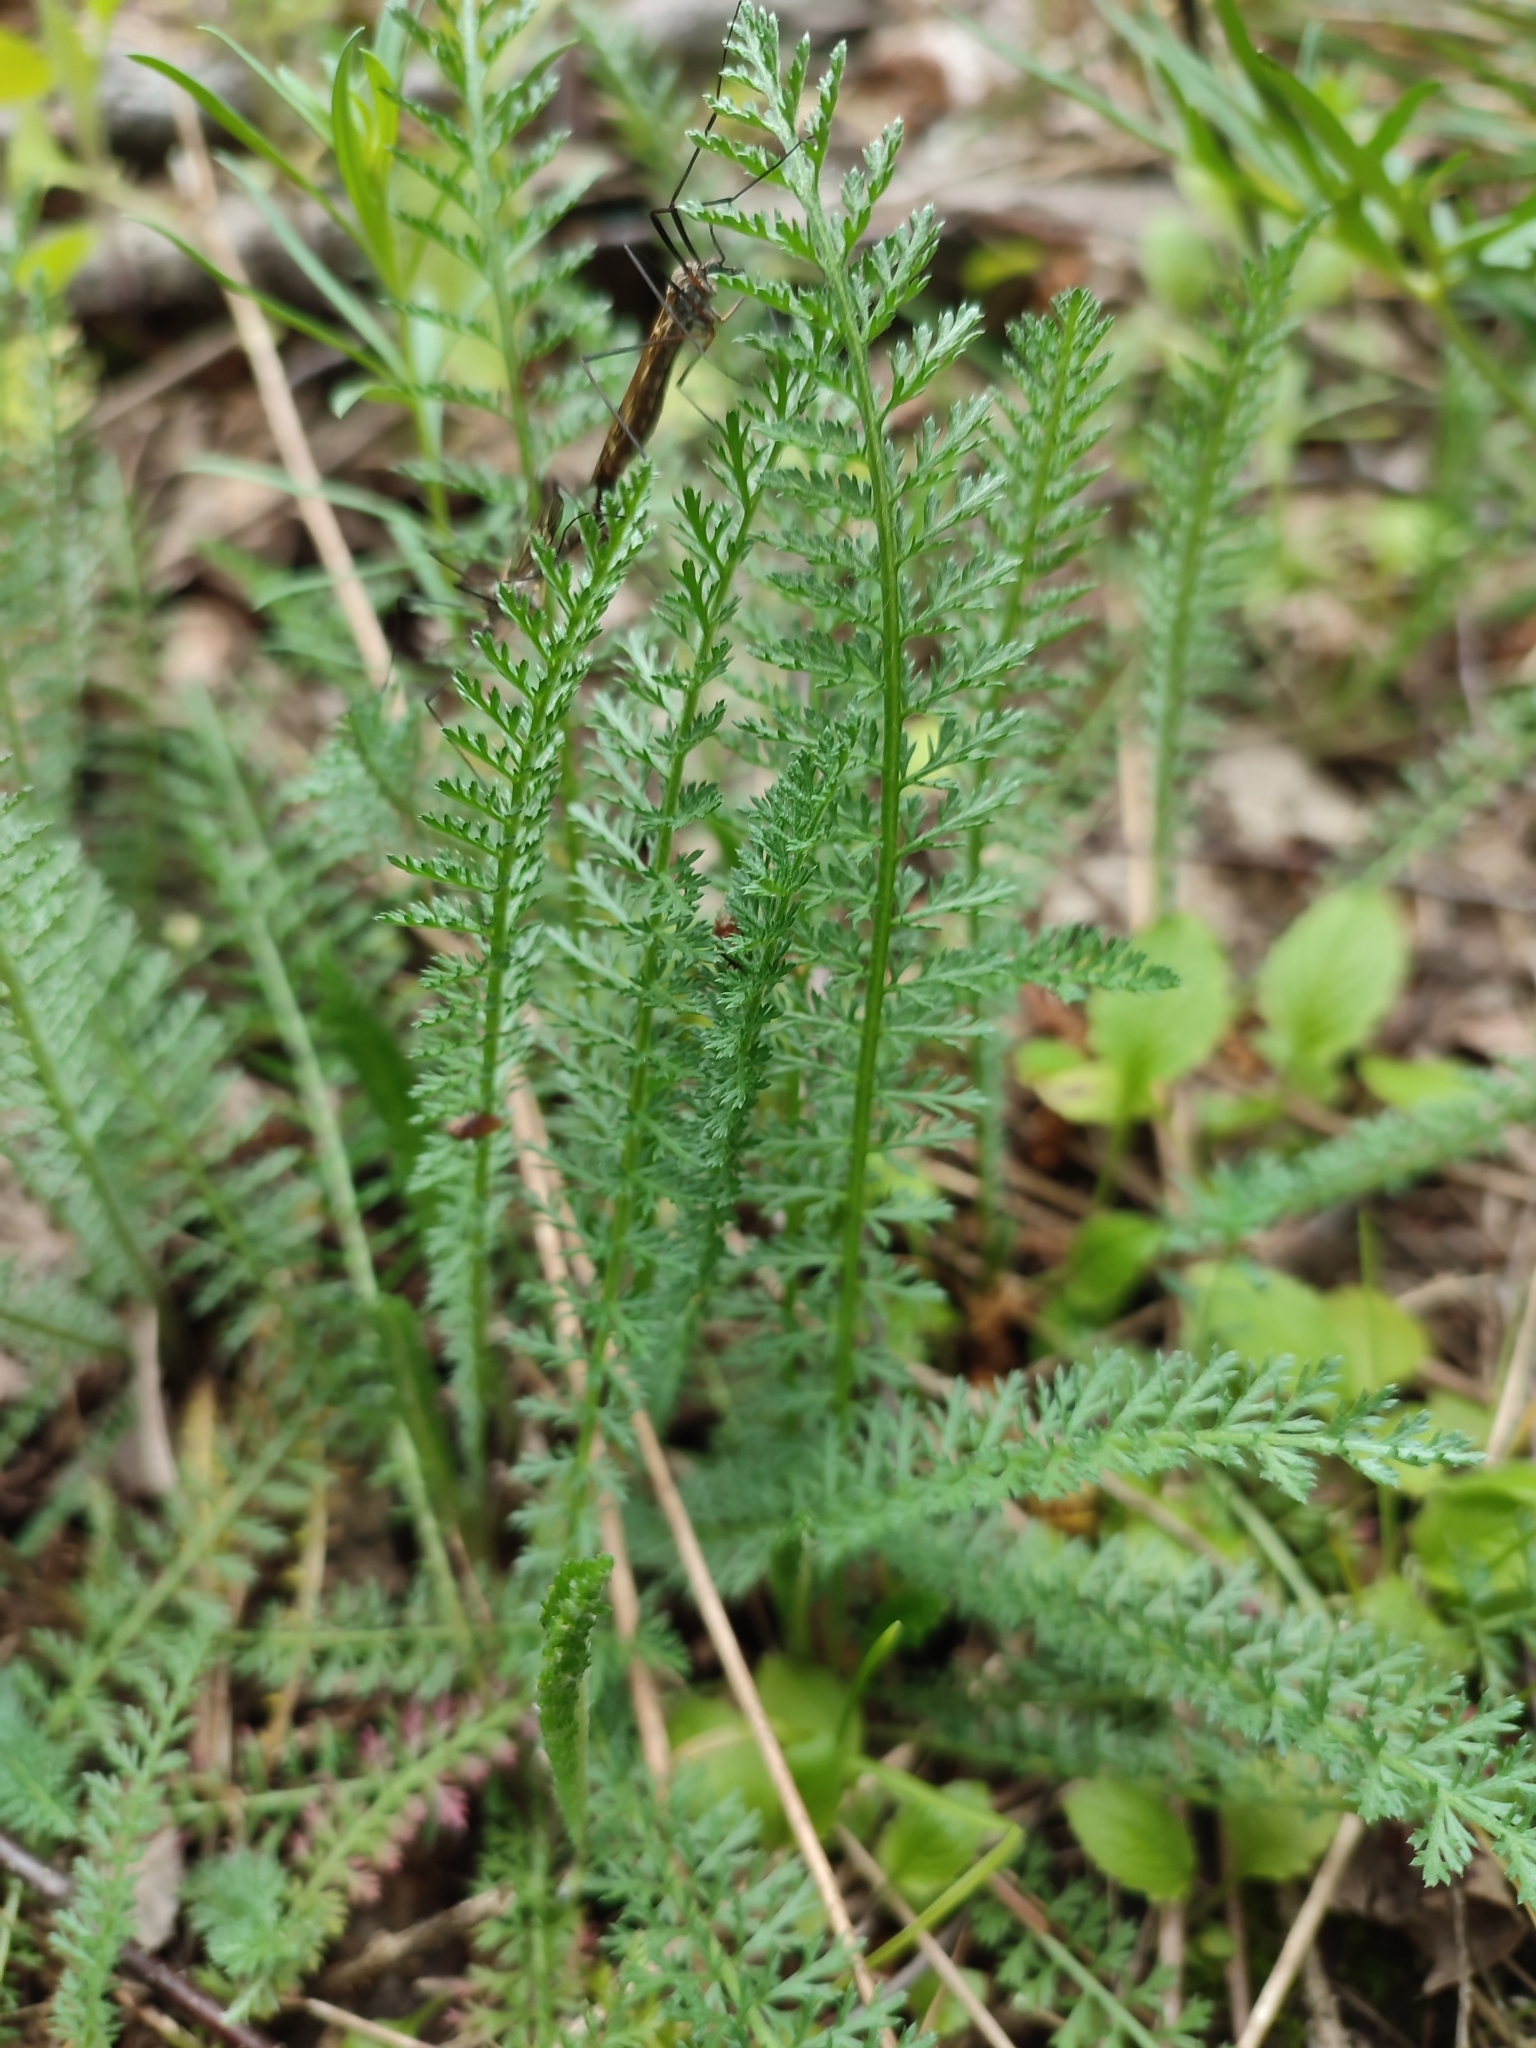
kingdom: Plantae
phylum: Tracheophyta
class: Magnoliopsida
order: Asterales
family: Asteraceae
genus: Achillea
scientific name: Achillea millefolium
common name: Yarrow
